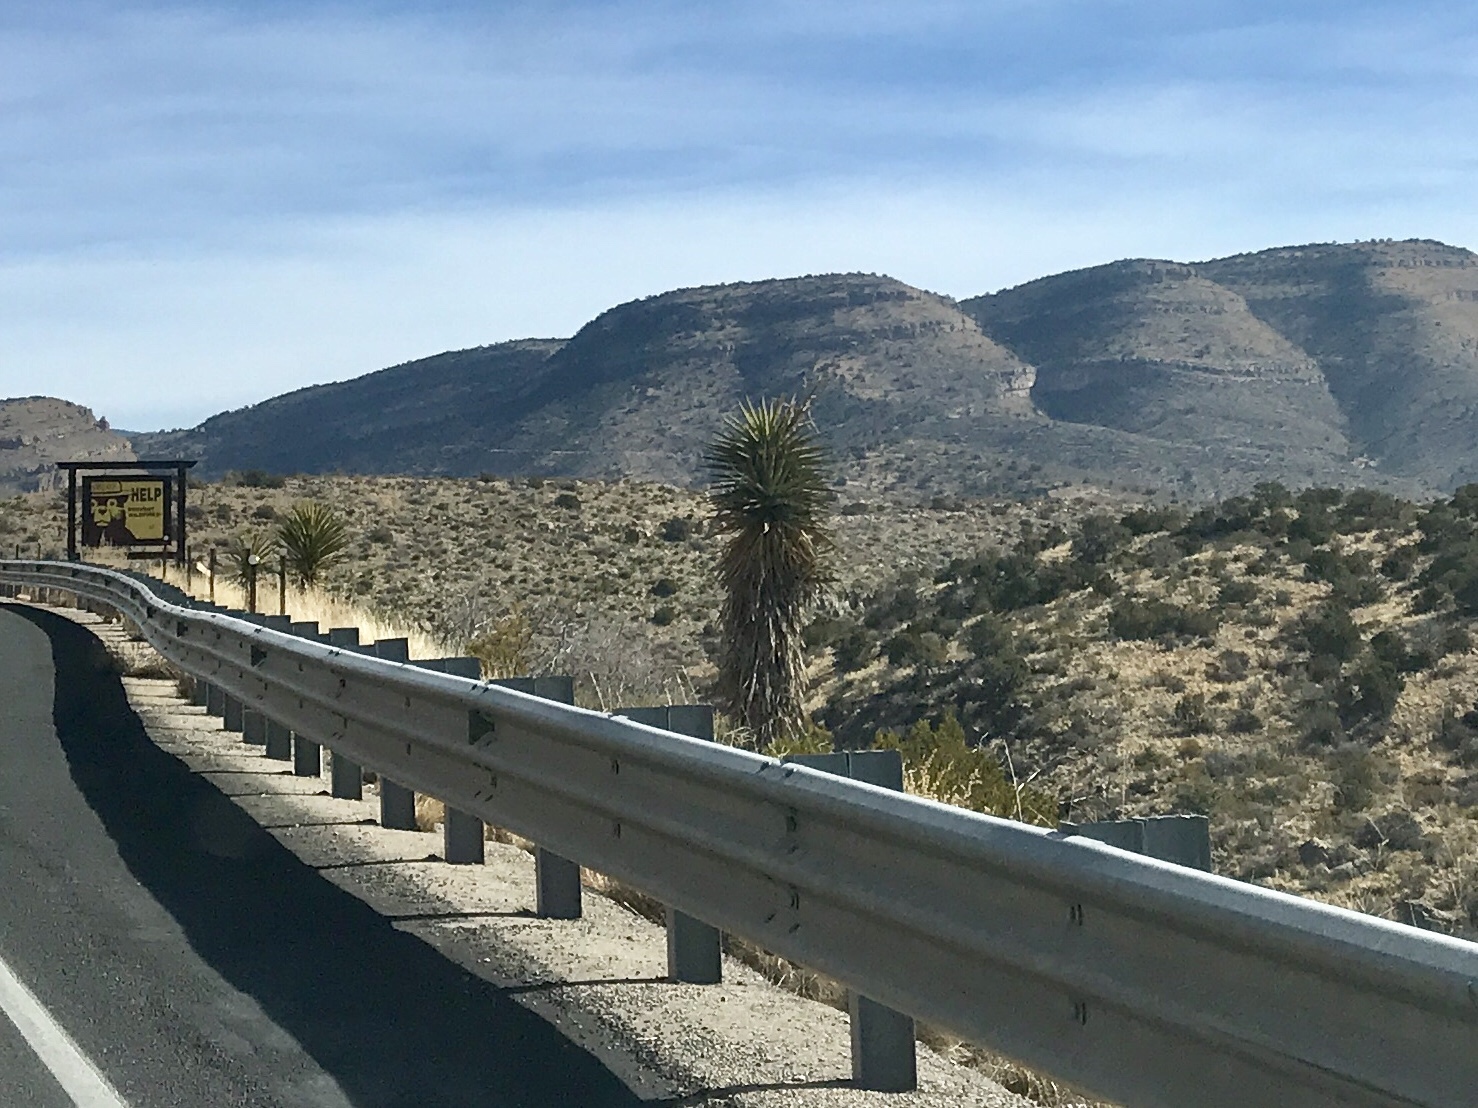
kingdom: Plantae
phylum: Tracheophyta
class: Liliopsida
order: Asparagales
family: Asparagaceae
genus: Yucca
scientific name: Yucca treculiana
